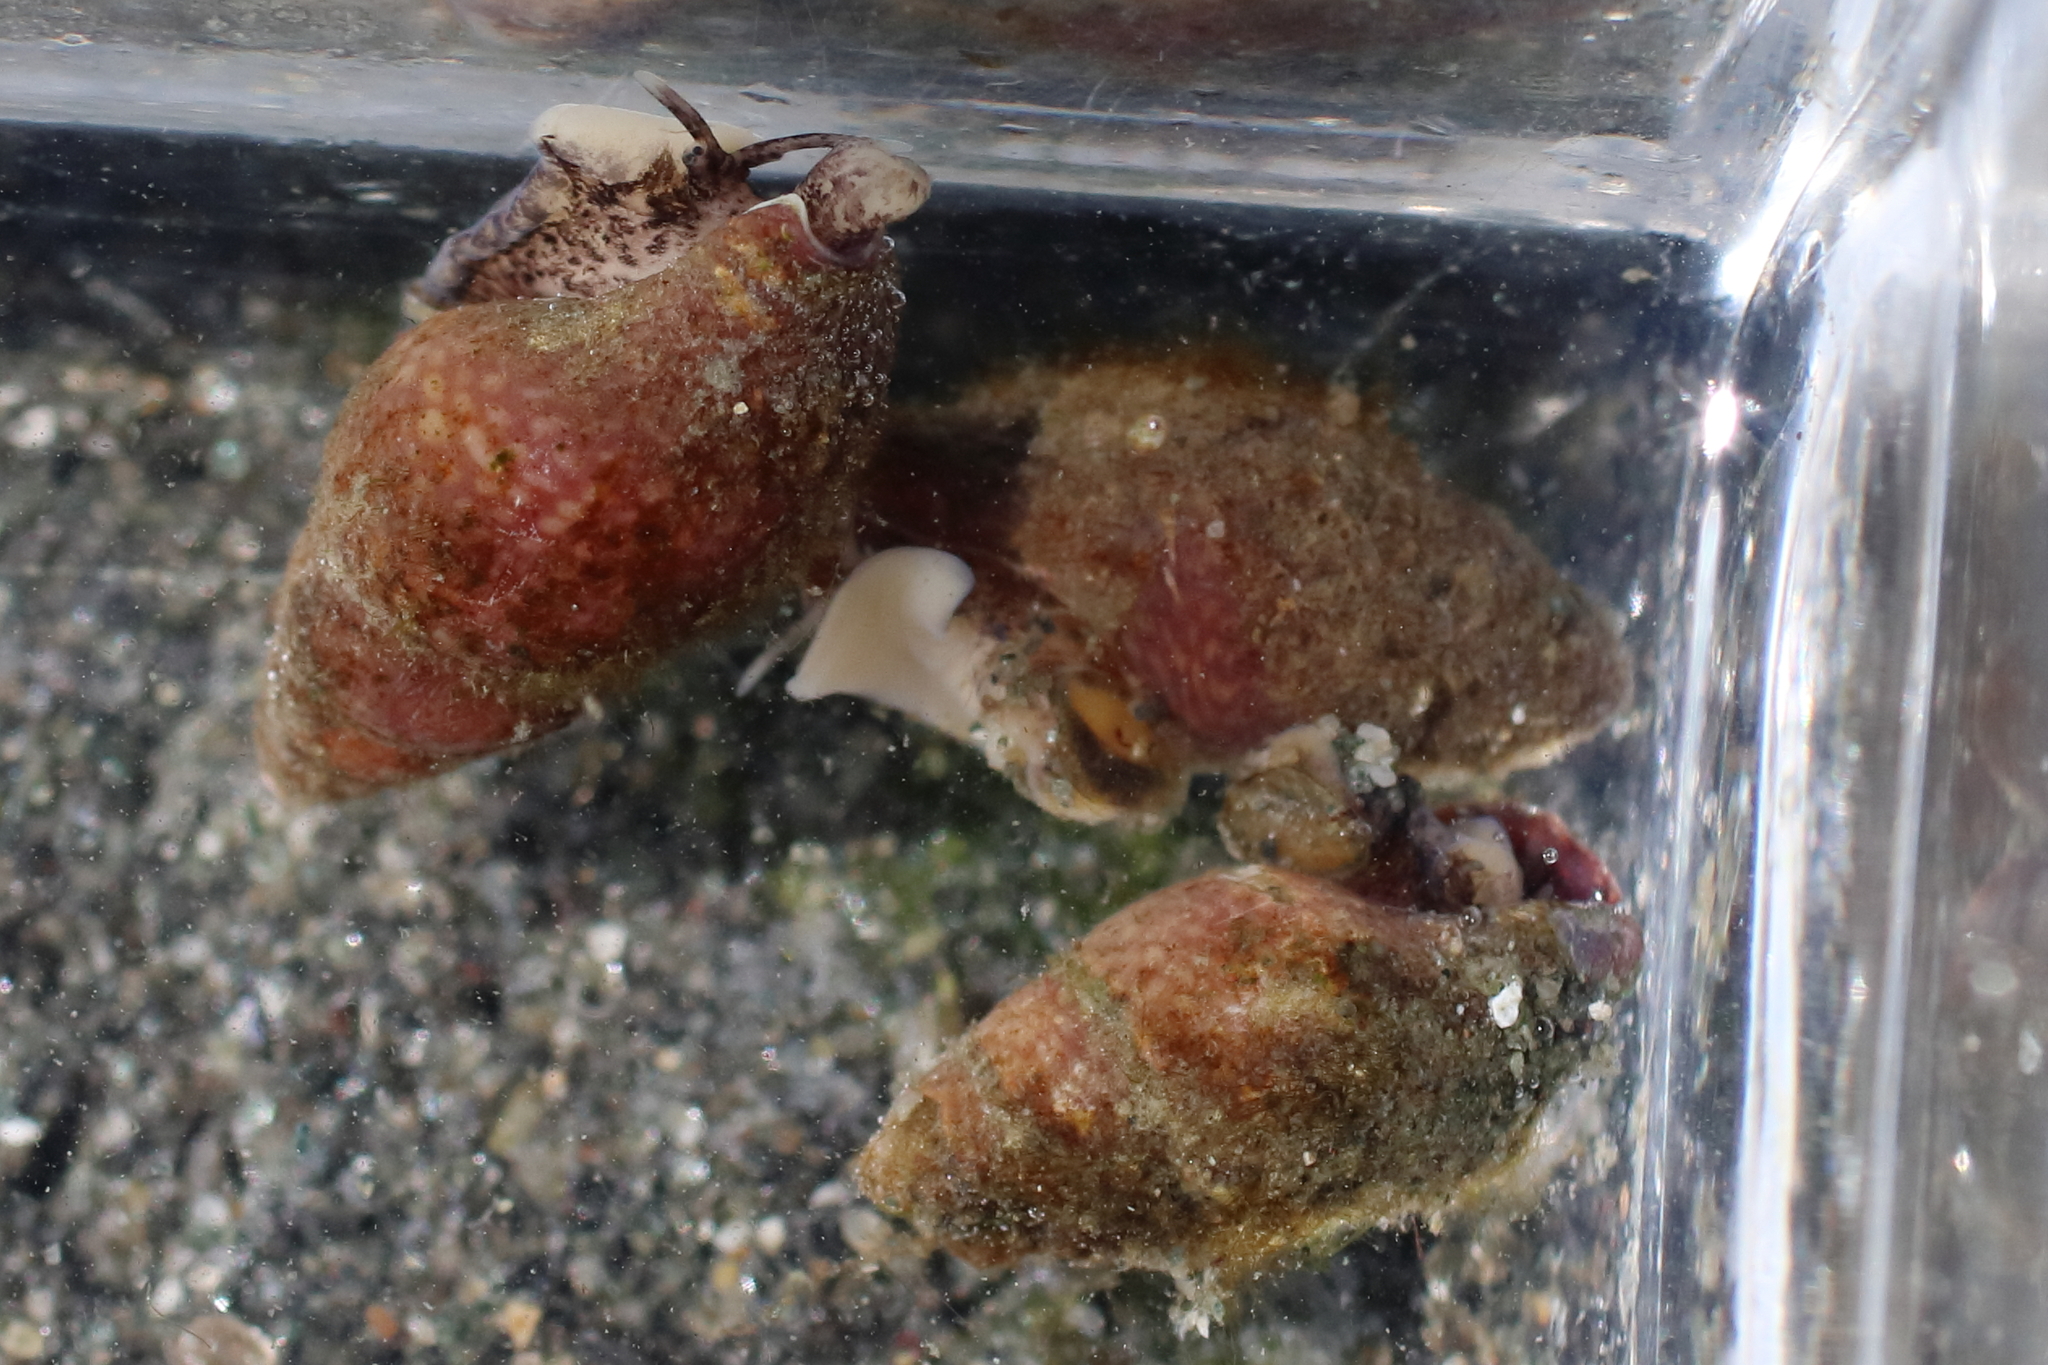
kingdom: Animalia
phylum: Mollusca
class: Gastropoda
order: Neogastropoda
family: Columbellidae
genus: Alia
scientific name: Alia carinata
